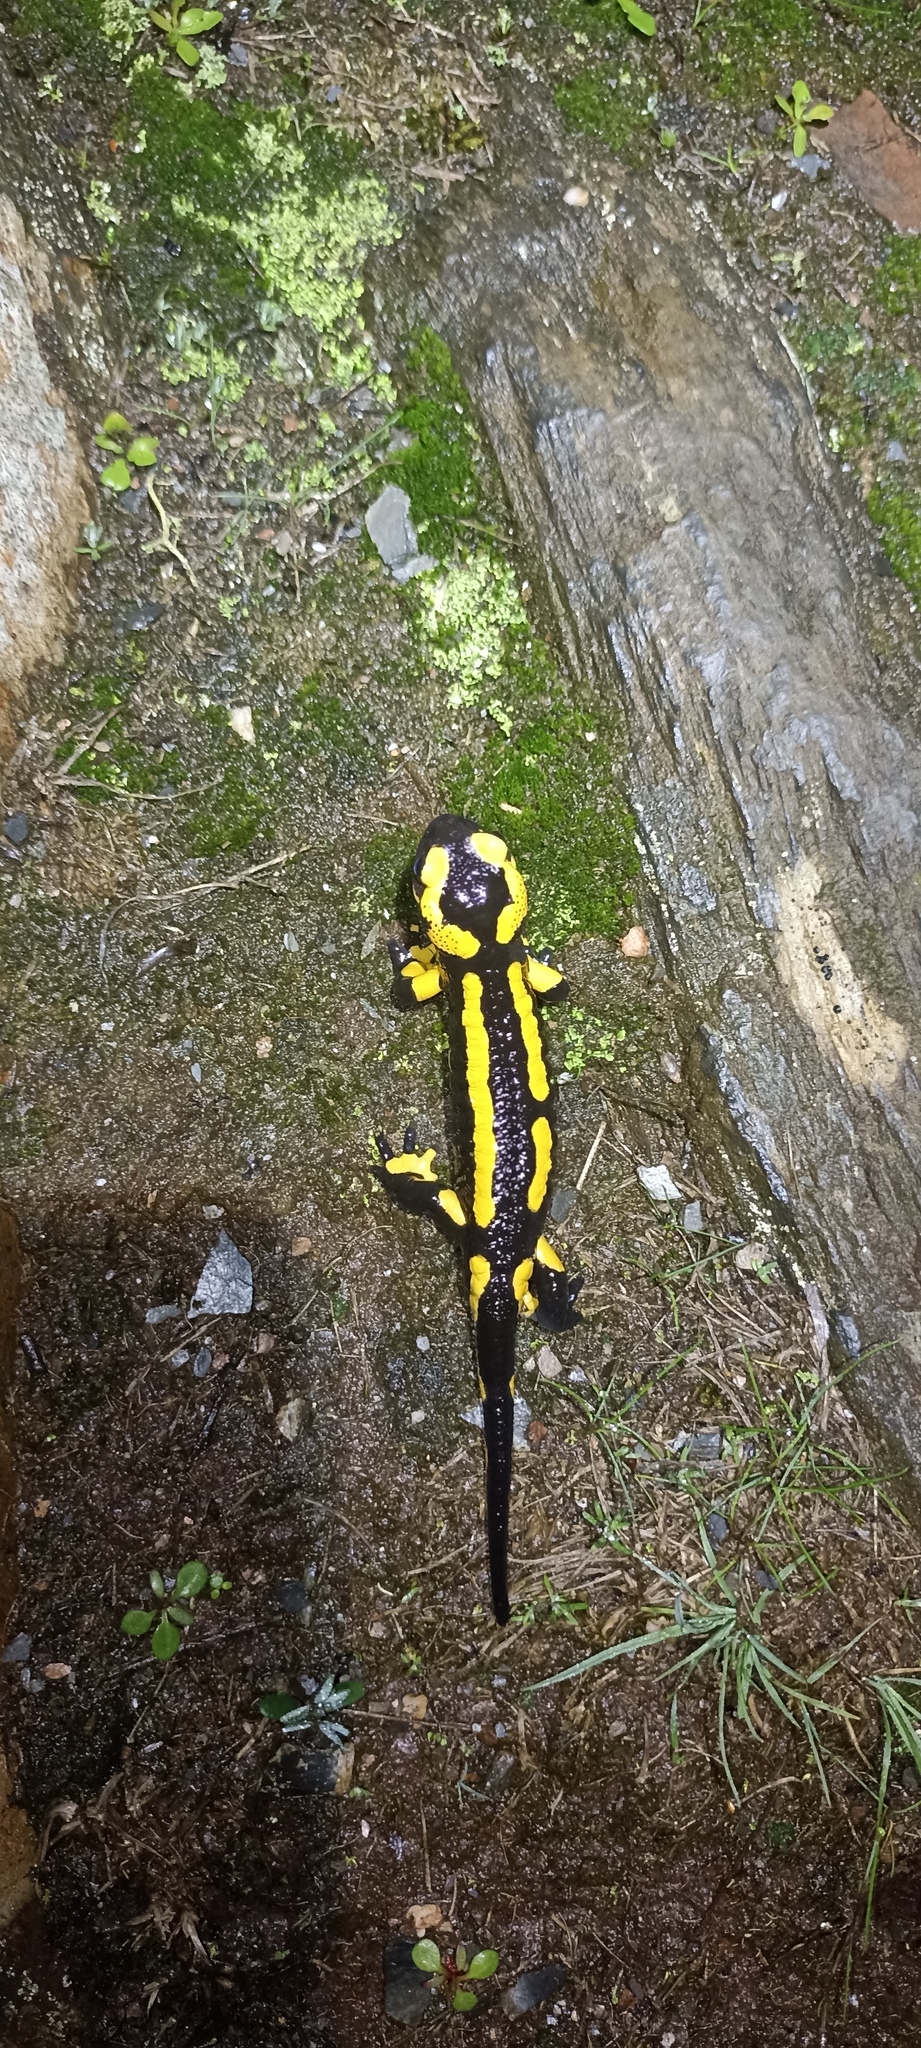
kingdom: Animalia
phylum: Chordata
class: Amphibia
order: Caudata
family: Salamandridae
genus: Salamandra
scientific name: Salamandra salamandra
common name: Fire salamander
